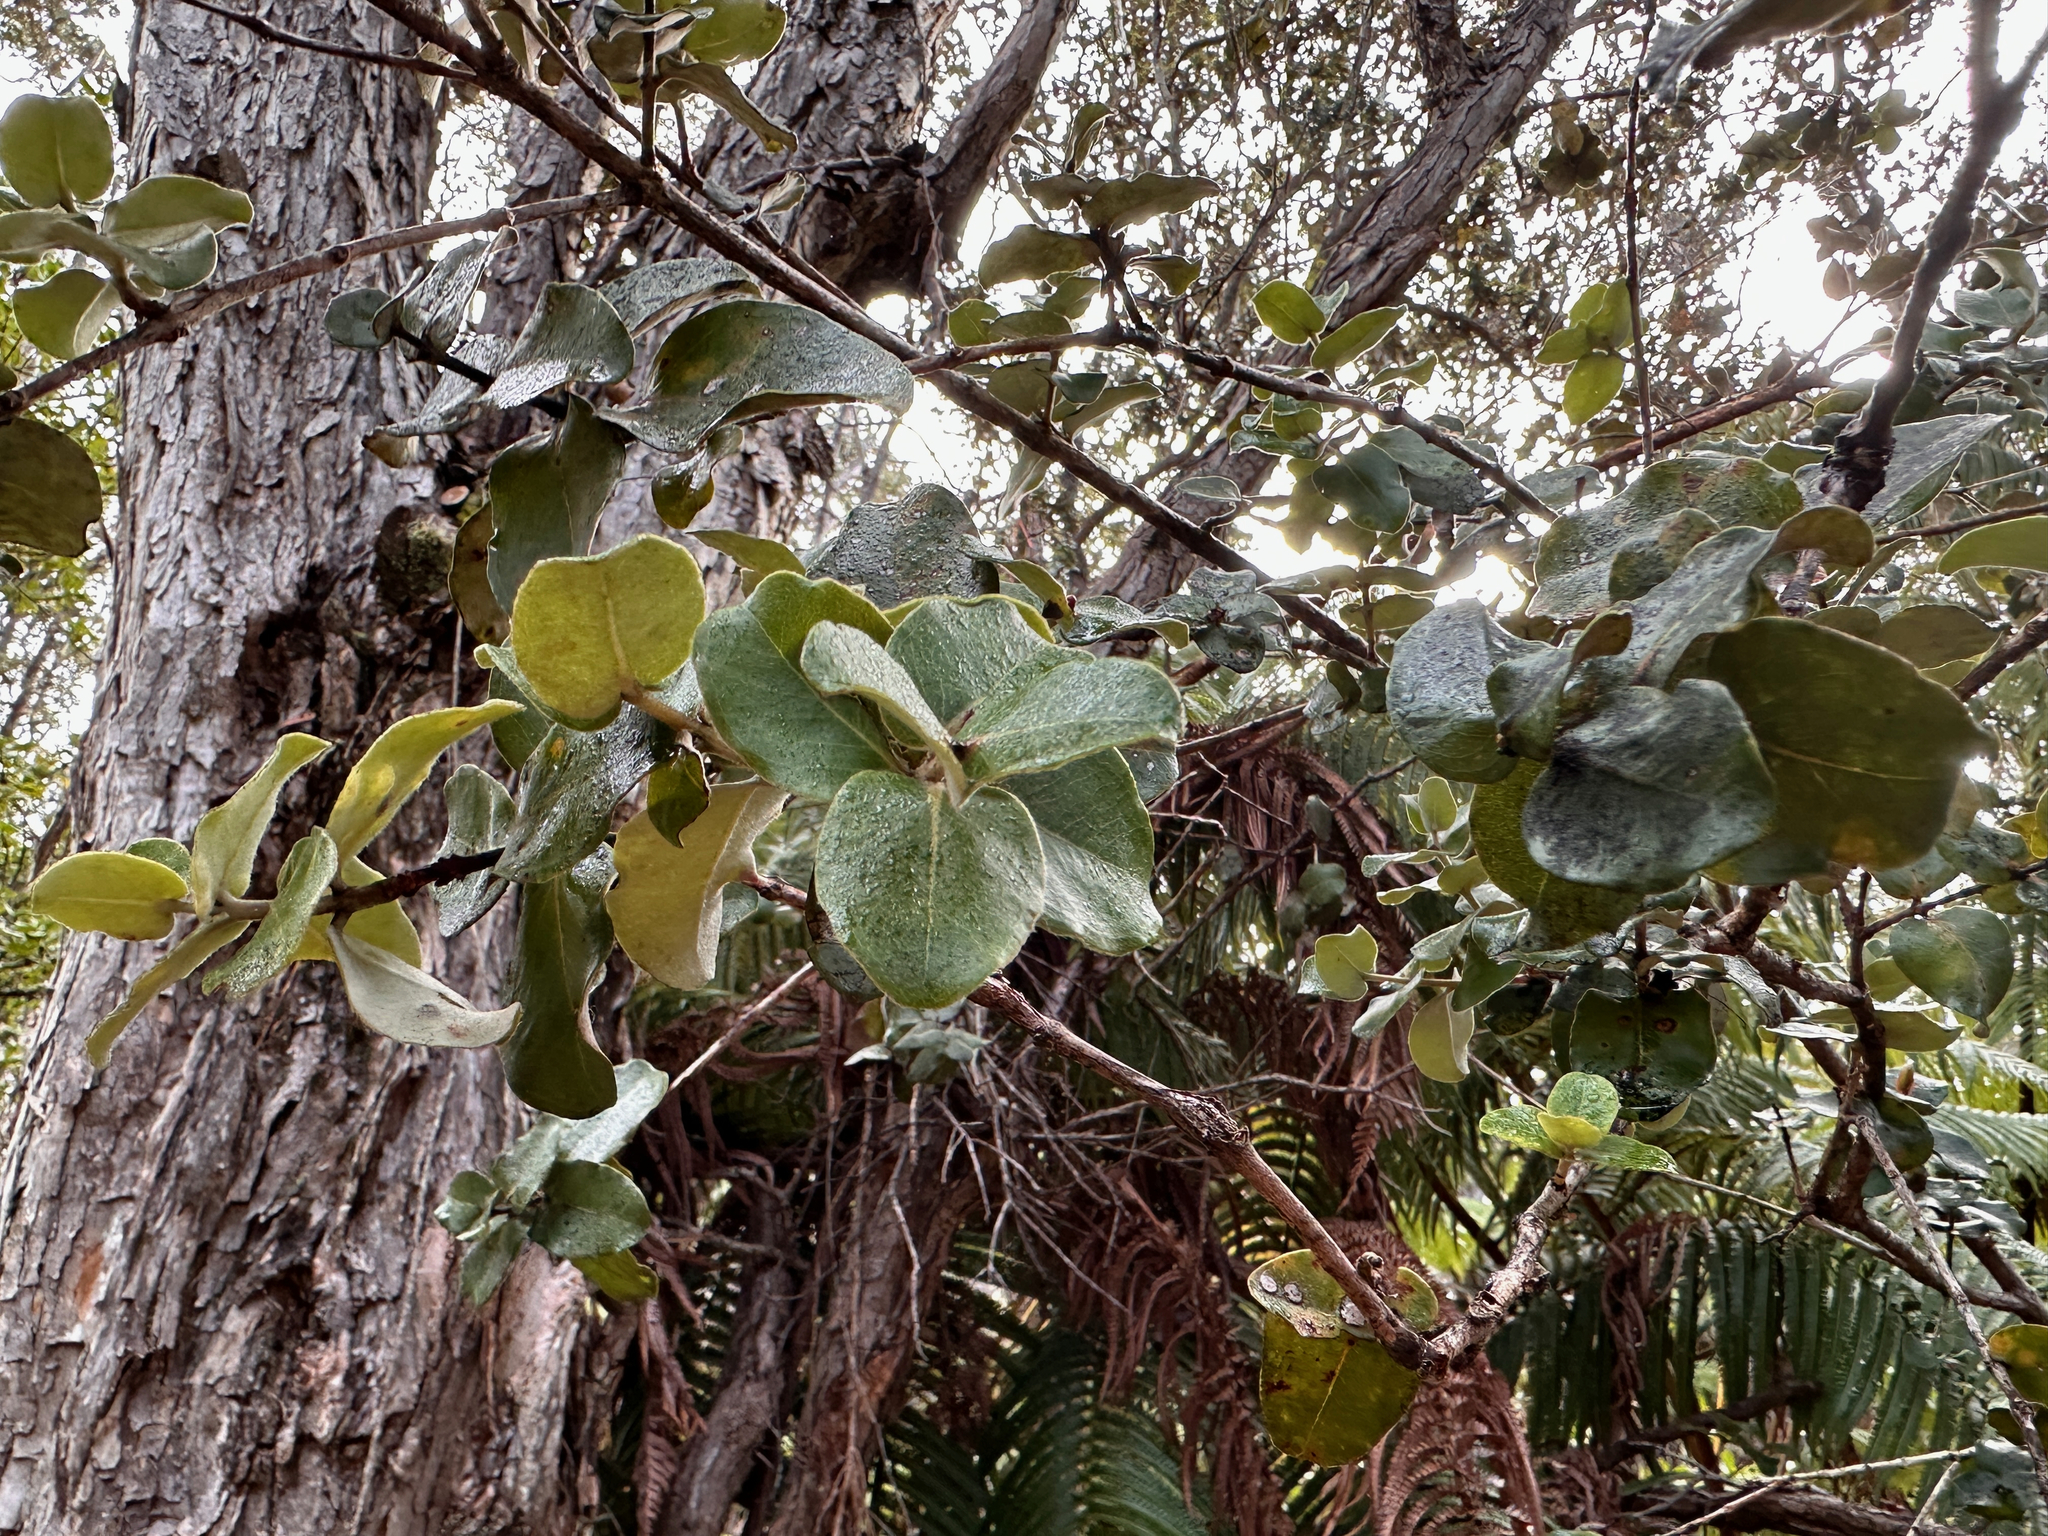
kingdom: Plantae
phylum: Tracheophyta
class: Magnoliopsida
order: Myrtales
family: Myrtaceae
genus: Metrosideros
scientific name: Metrosideros polymorpha
